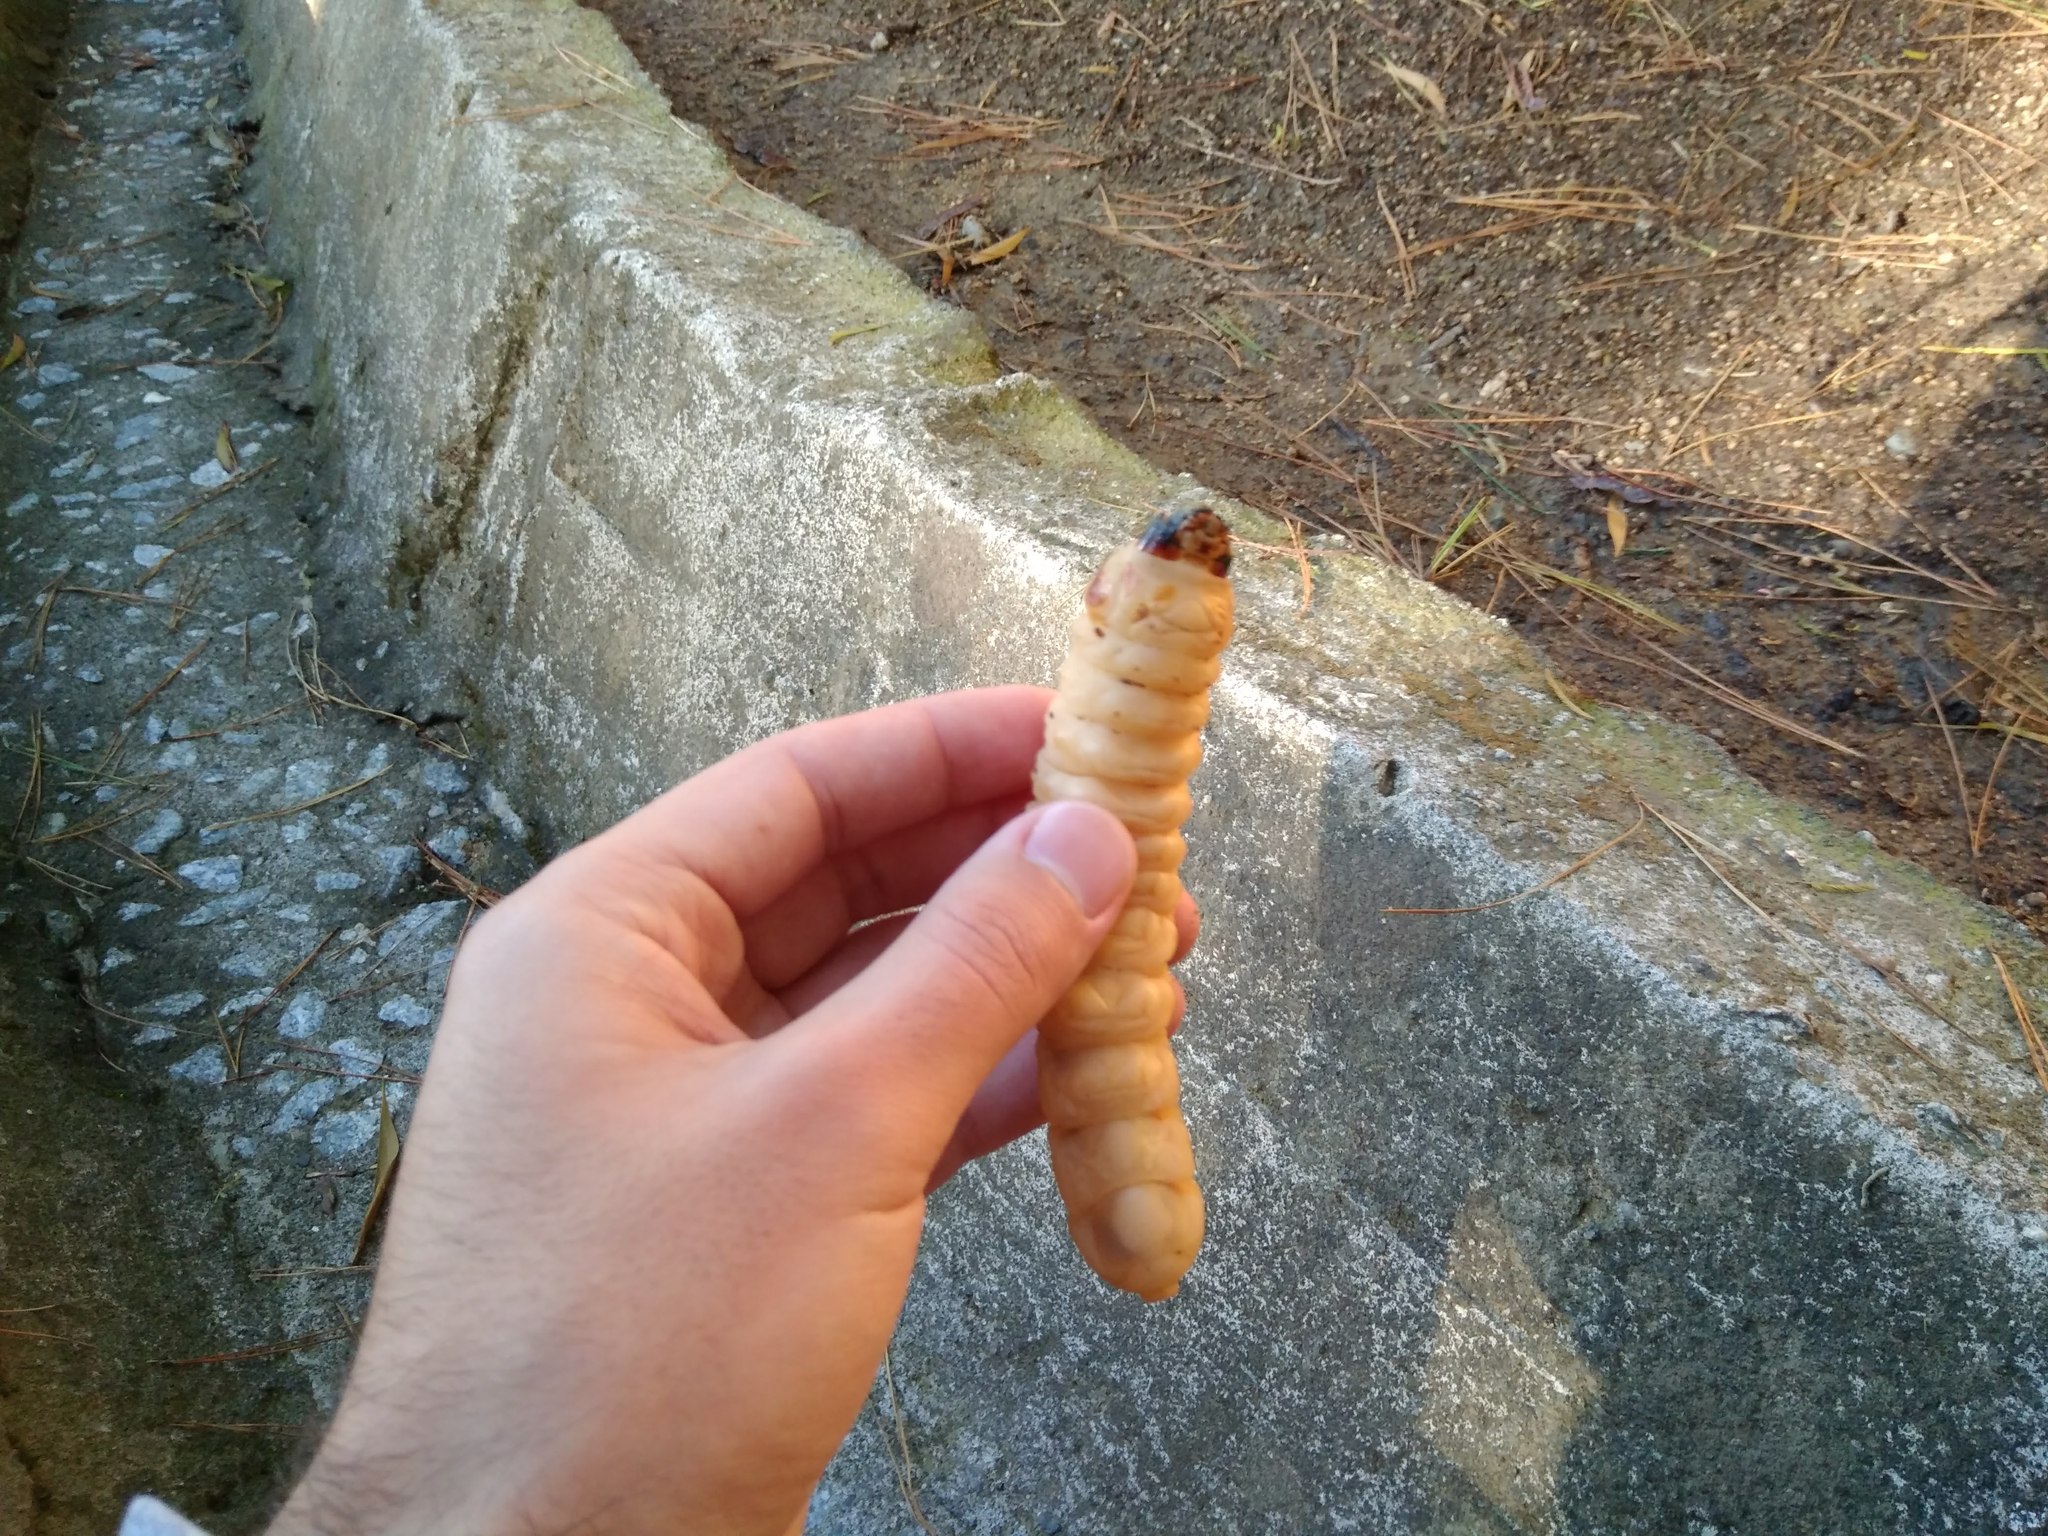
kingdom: Animalia
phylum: Arthropoda
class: Insecta
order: Coleoptera
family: Cerambycidae
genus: Acanthinodera
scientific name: Acanthinodera cumingii
